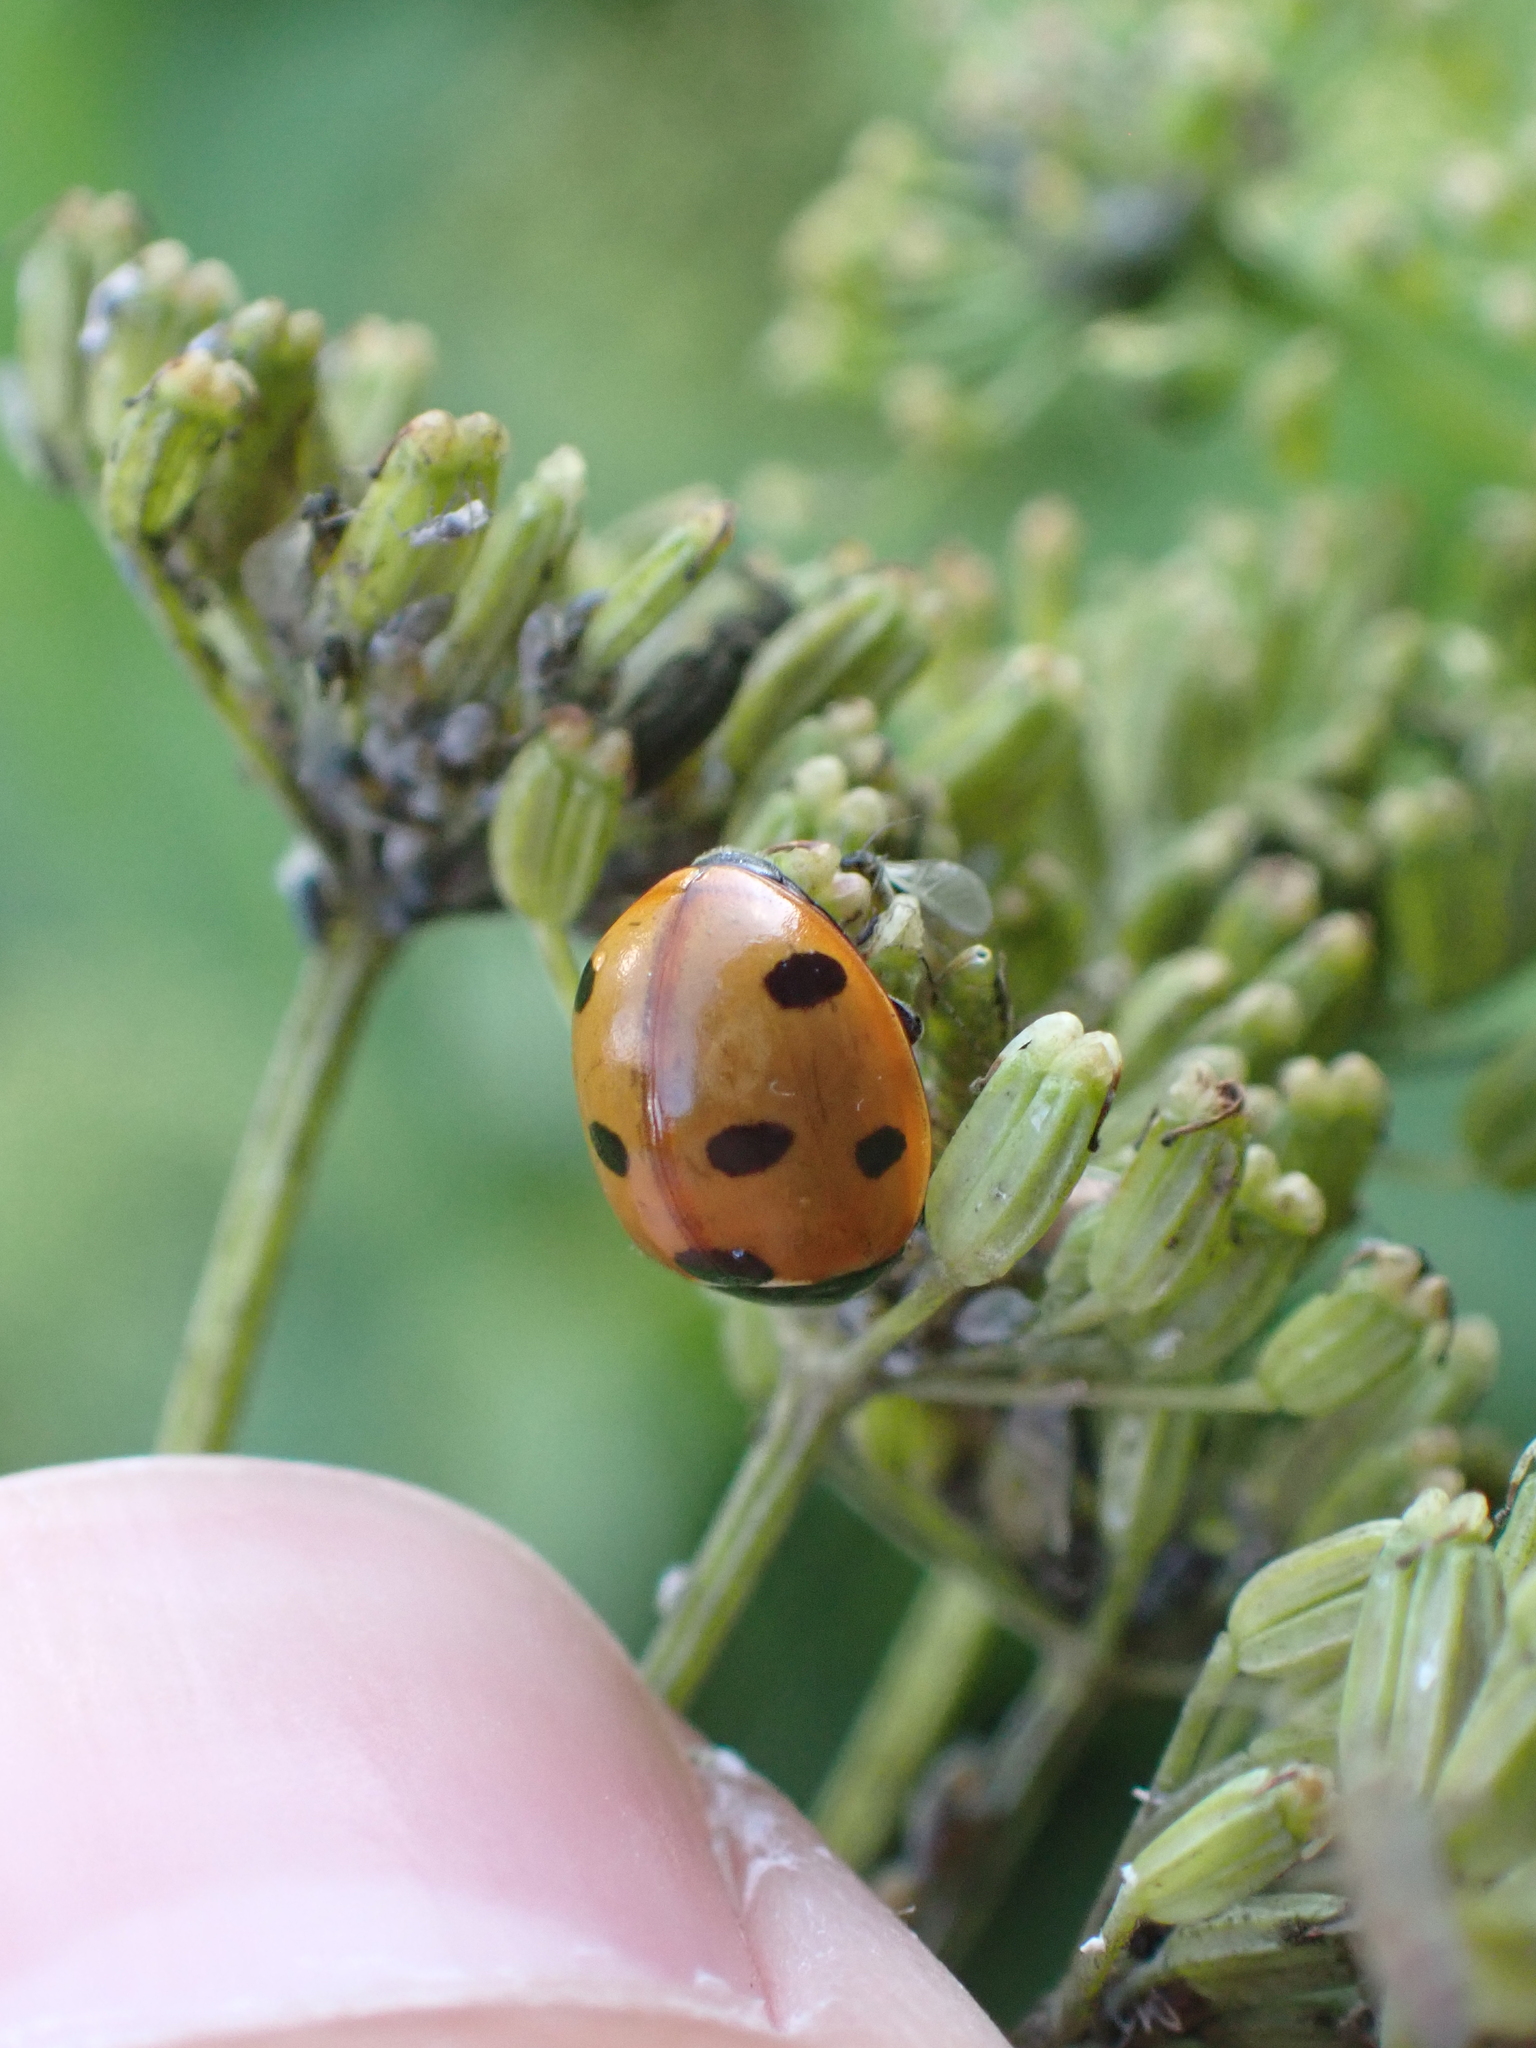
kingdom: Animalia
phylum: Arthropoda
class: Insecta
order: Coleoptera
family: Coccinellidae
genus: Coccinella
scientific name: Coccinella septempunctata
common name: Sevenspotted lady beetle
